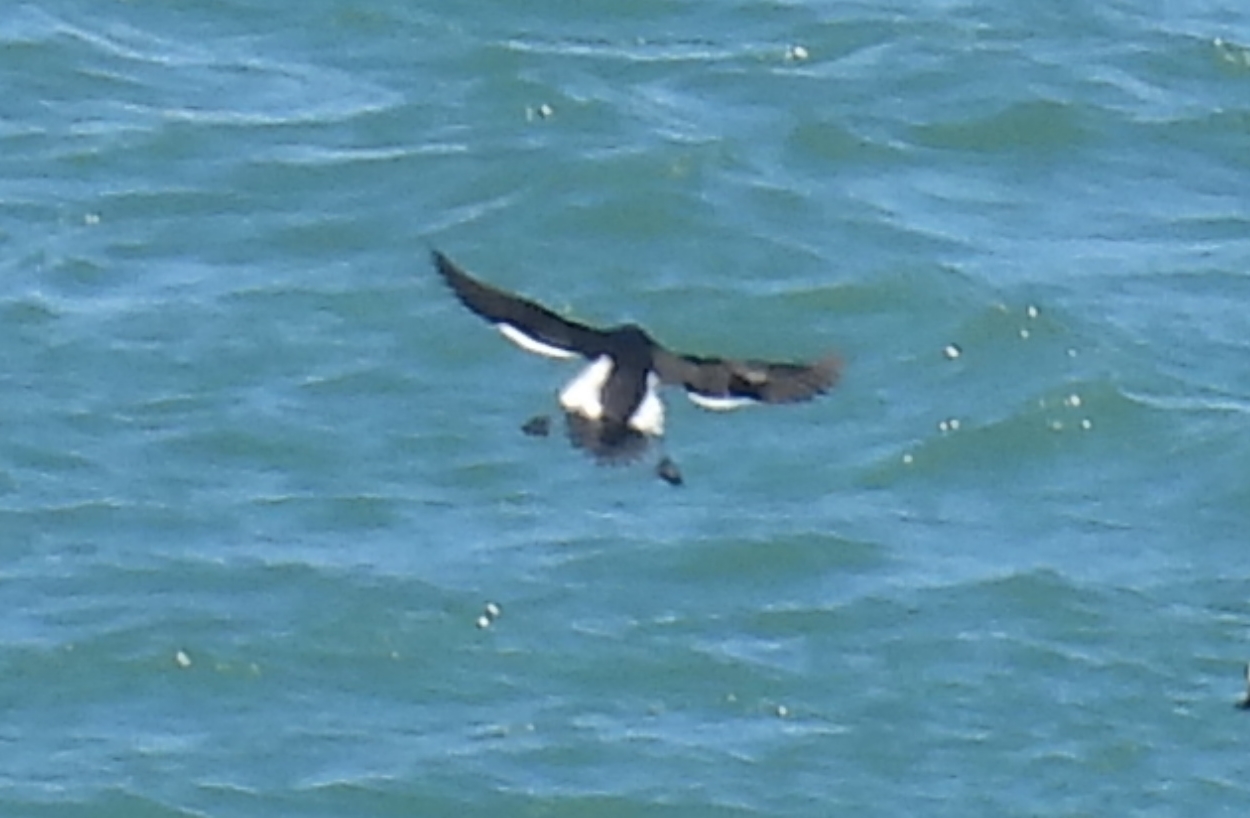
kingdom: Animalia
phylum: Chordata
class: Aves
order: Charadriiformes
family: Alcidae
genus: Alca
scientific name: Alca torda
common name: Razorbill
